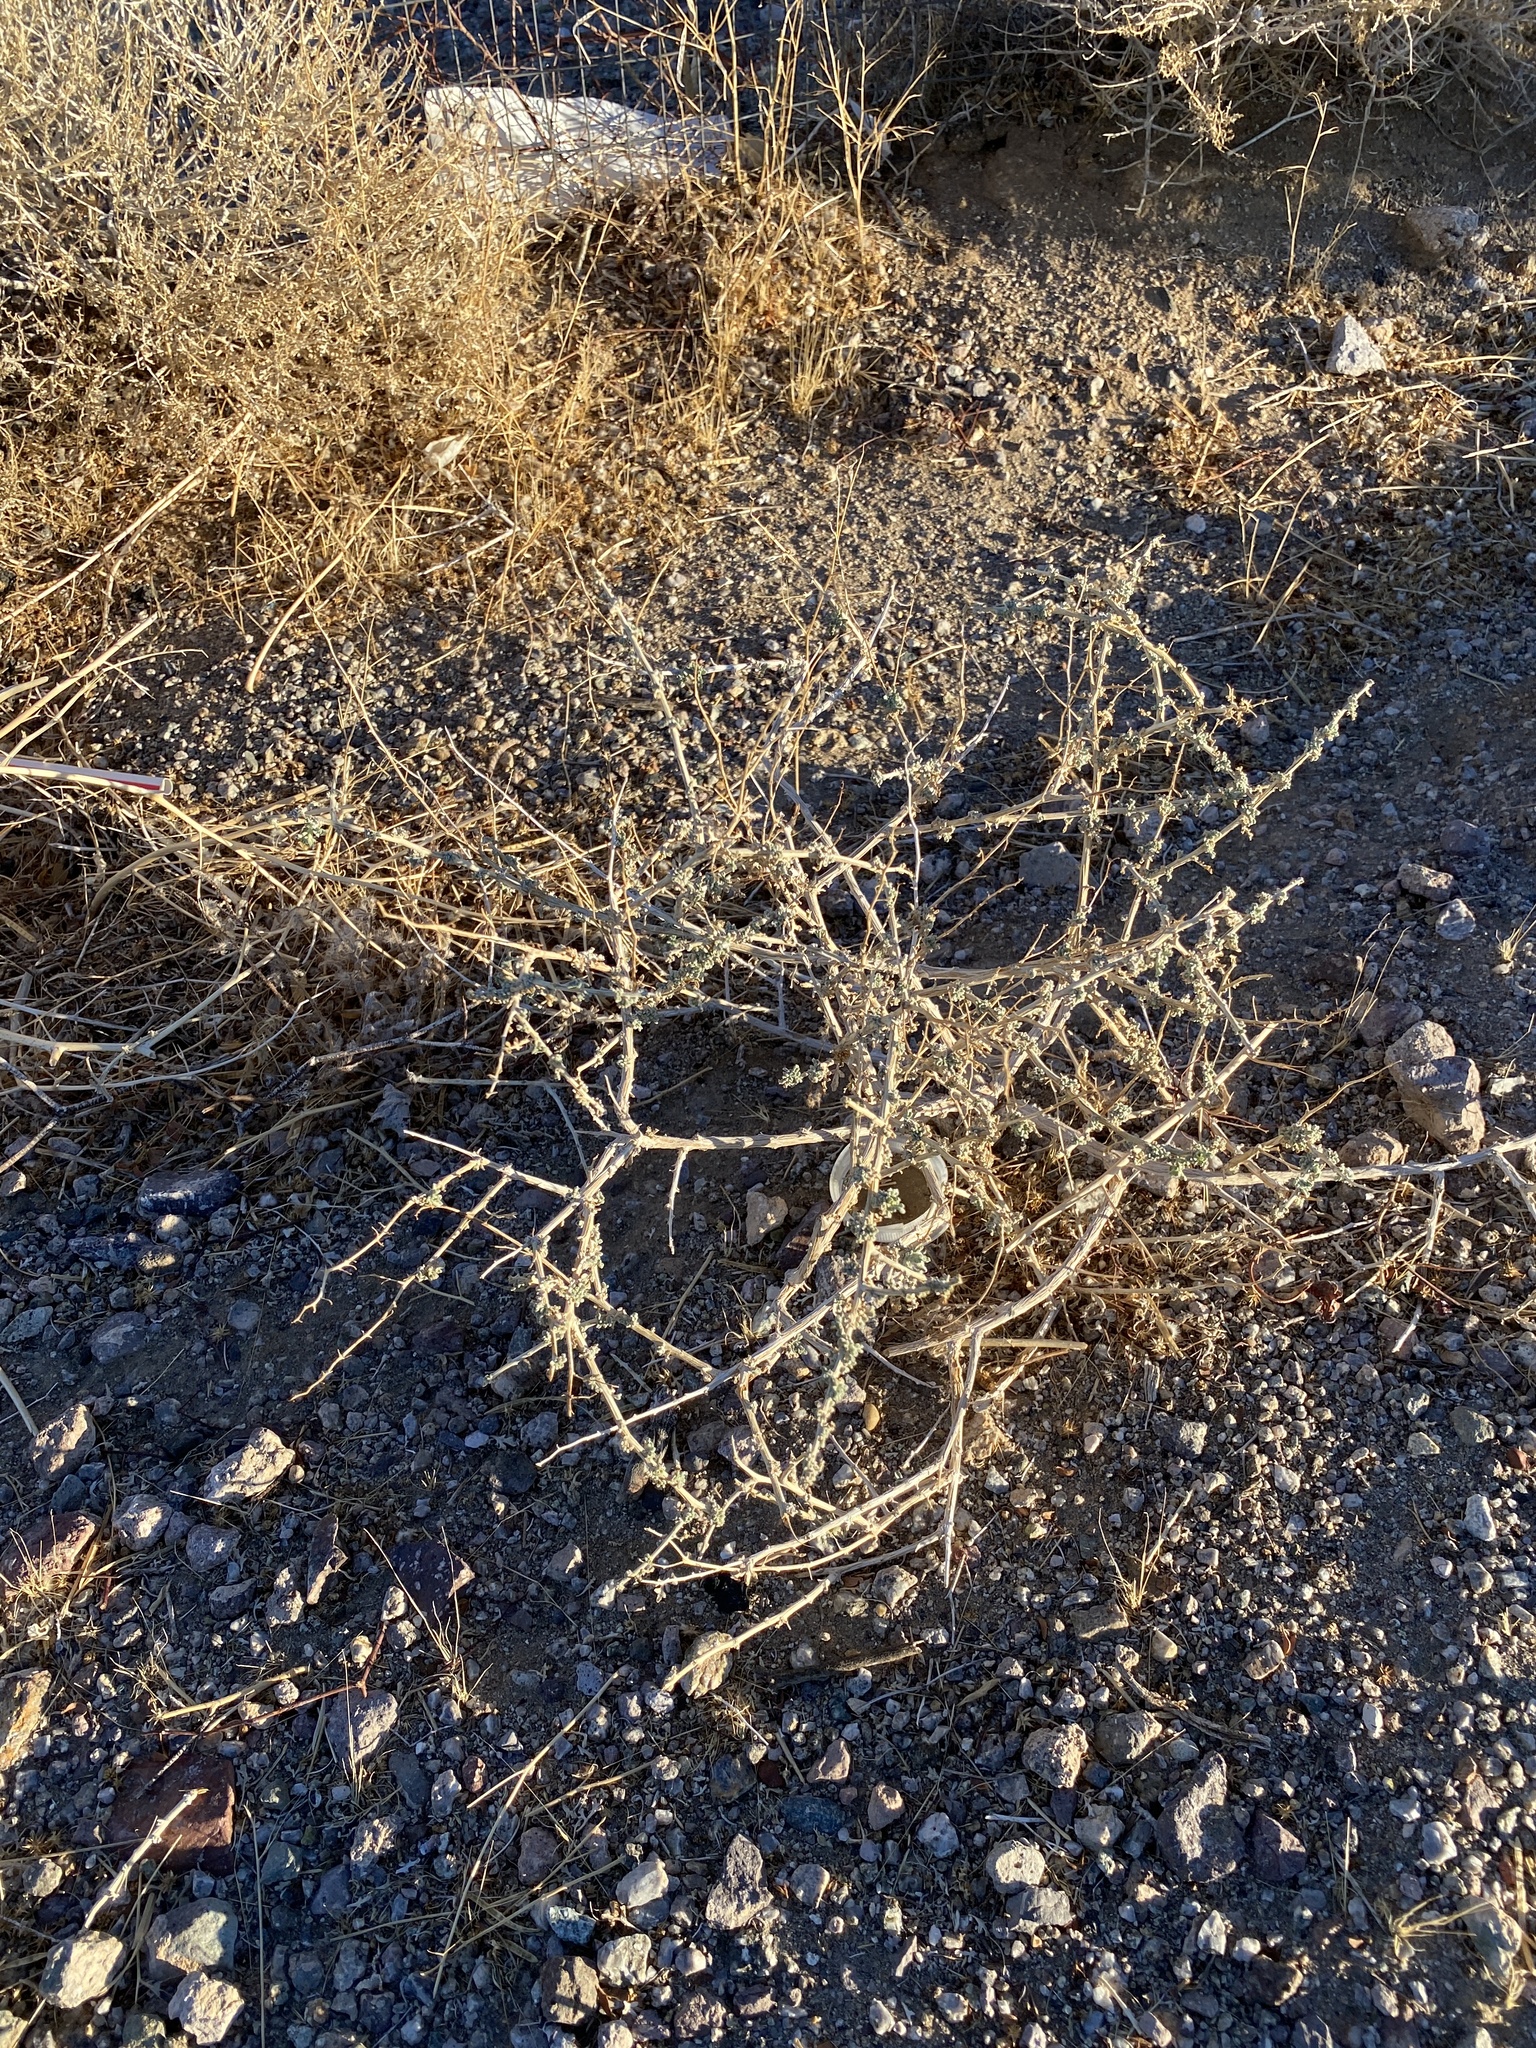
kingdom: Plantae
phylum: Tracheophyta
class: Magnoliopsida
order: Asterales
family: Asteraceae
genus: Ambrosia
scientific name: Ambrosia dumosa
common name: Bur-sage
